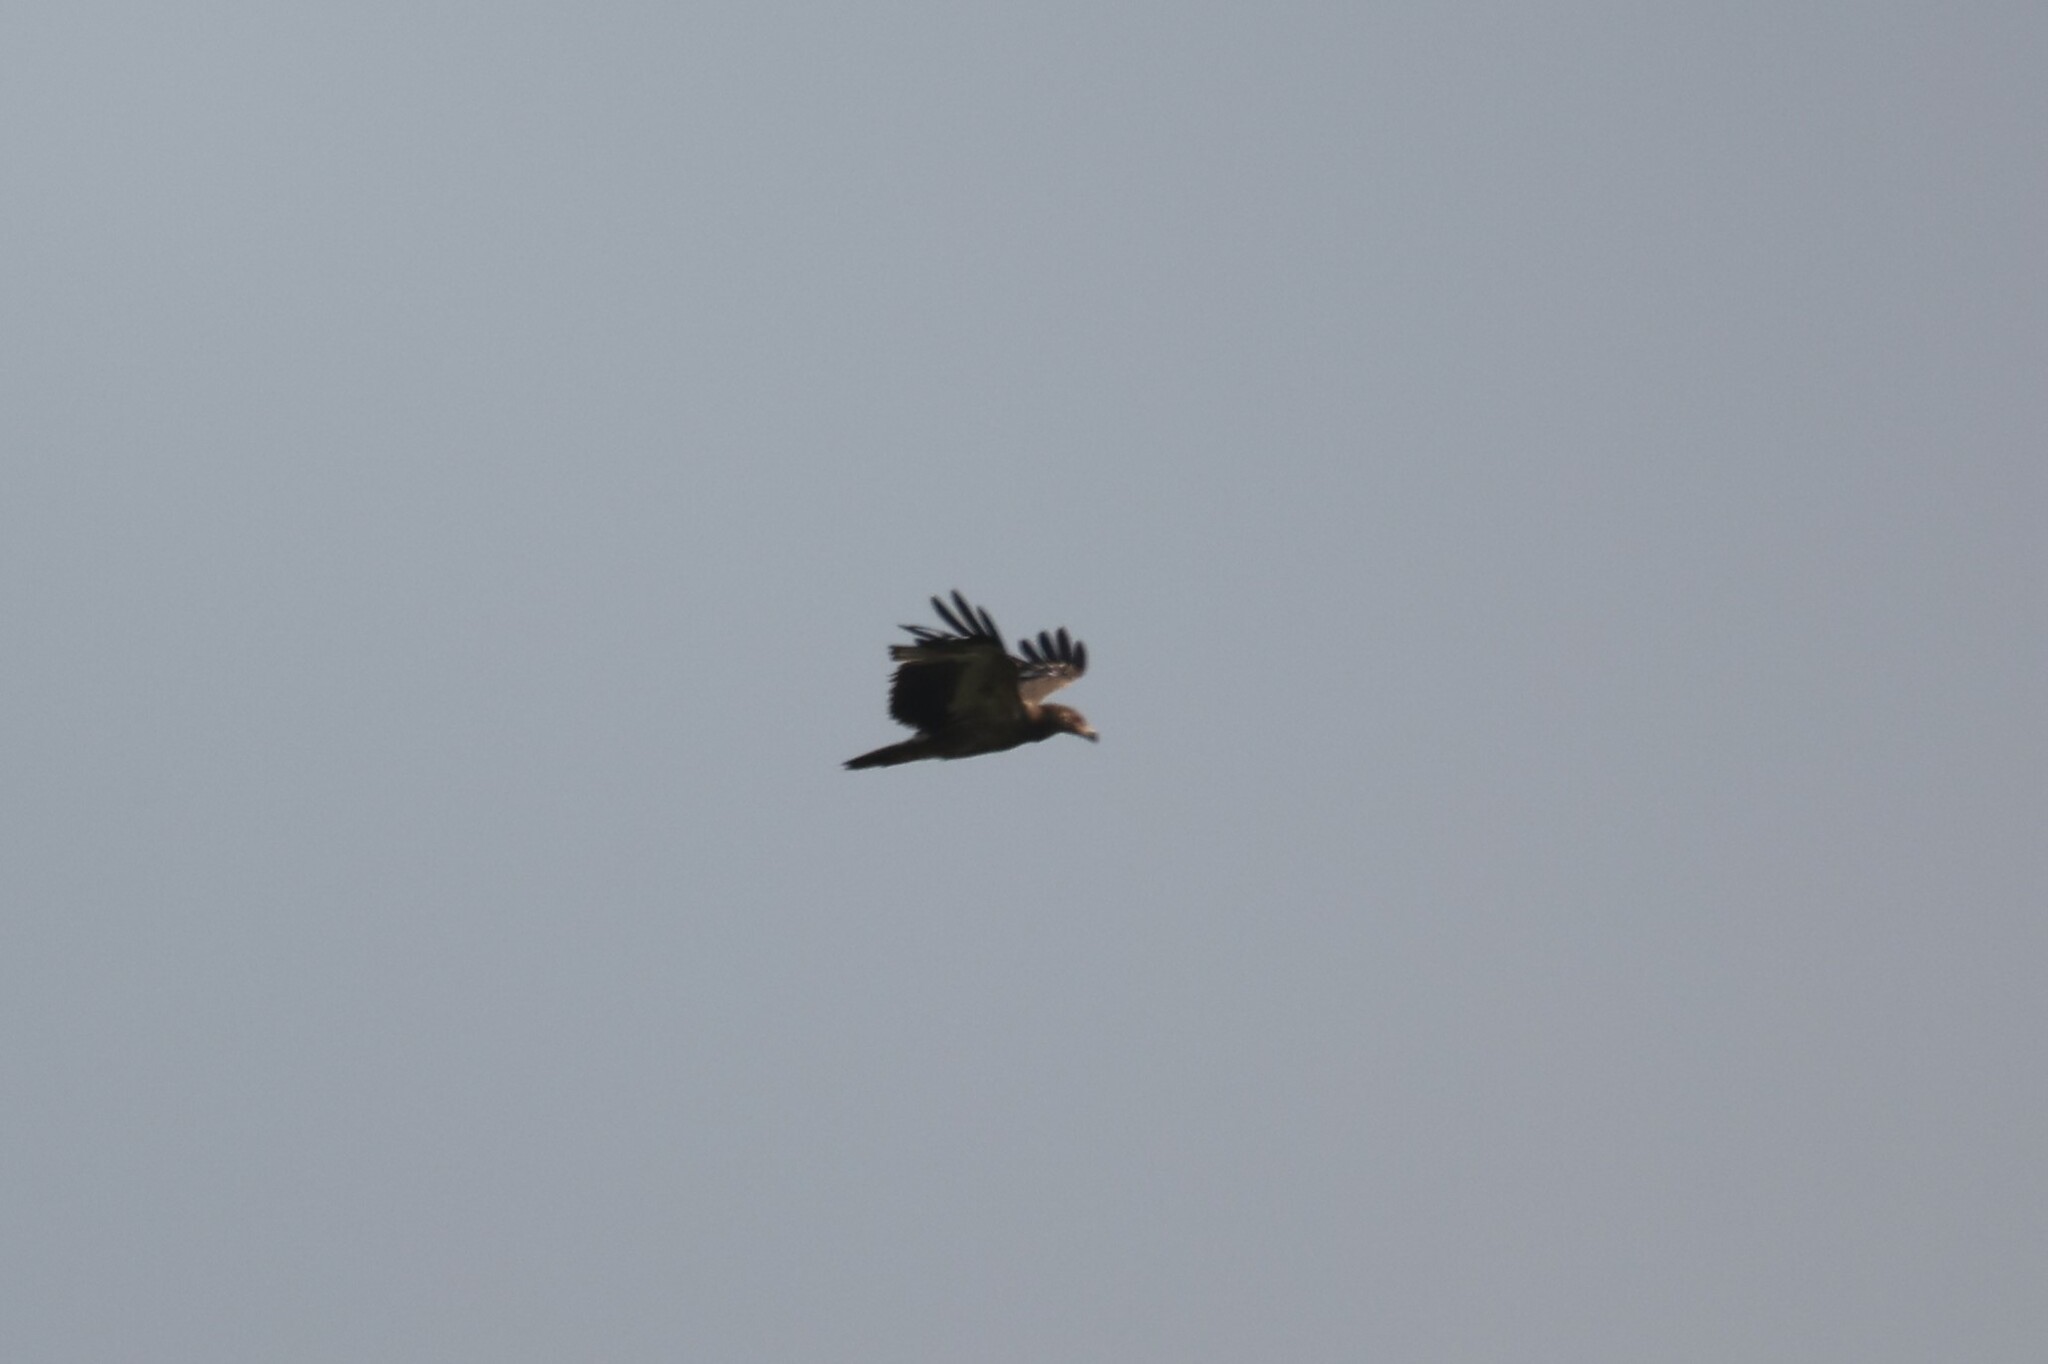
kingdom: Animalia
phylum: Chordata
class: Aves
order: Accipitriformes
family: Accipitridae
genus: Gypohierax
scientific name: Gypohierax angolensis
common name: Palm-nut vulture
